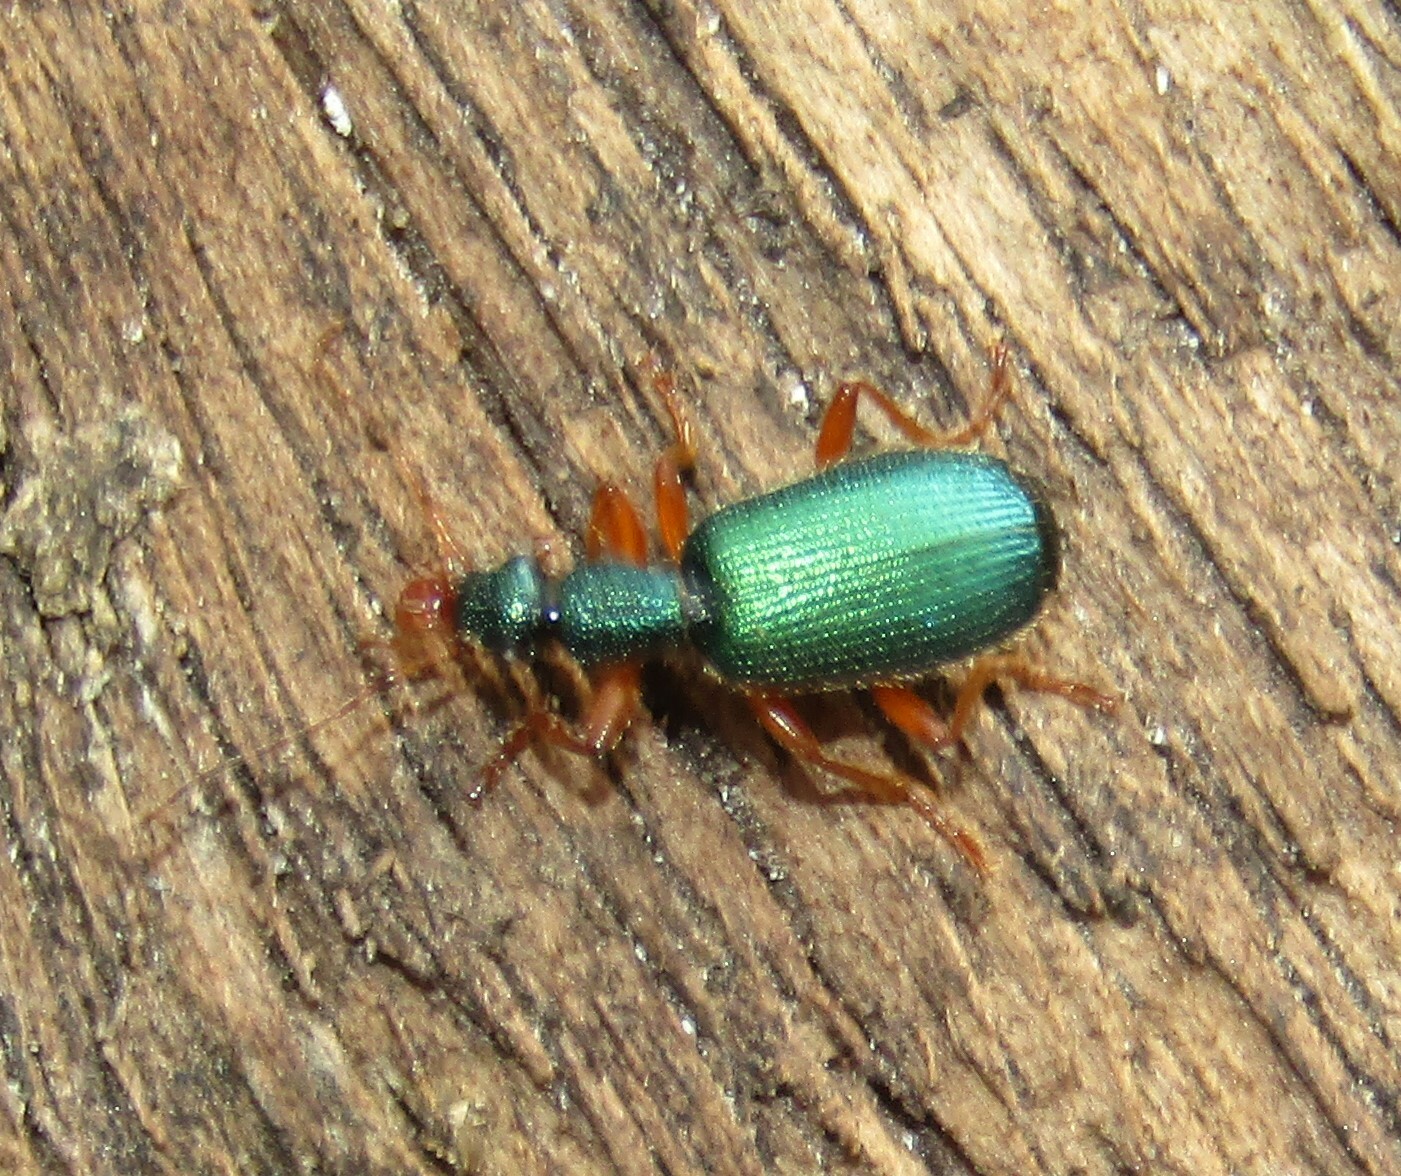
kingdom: Animalia
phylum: Arthropoda
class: Insecta
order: Coleoptera
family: Carabidae
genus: Drypta
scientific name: Drypta dentata
